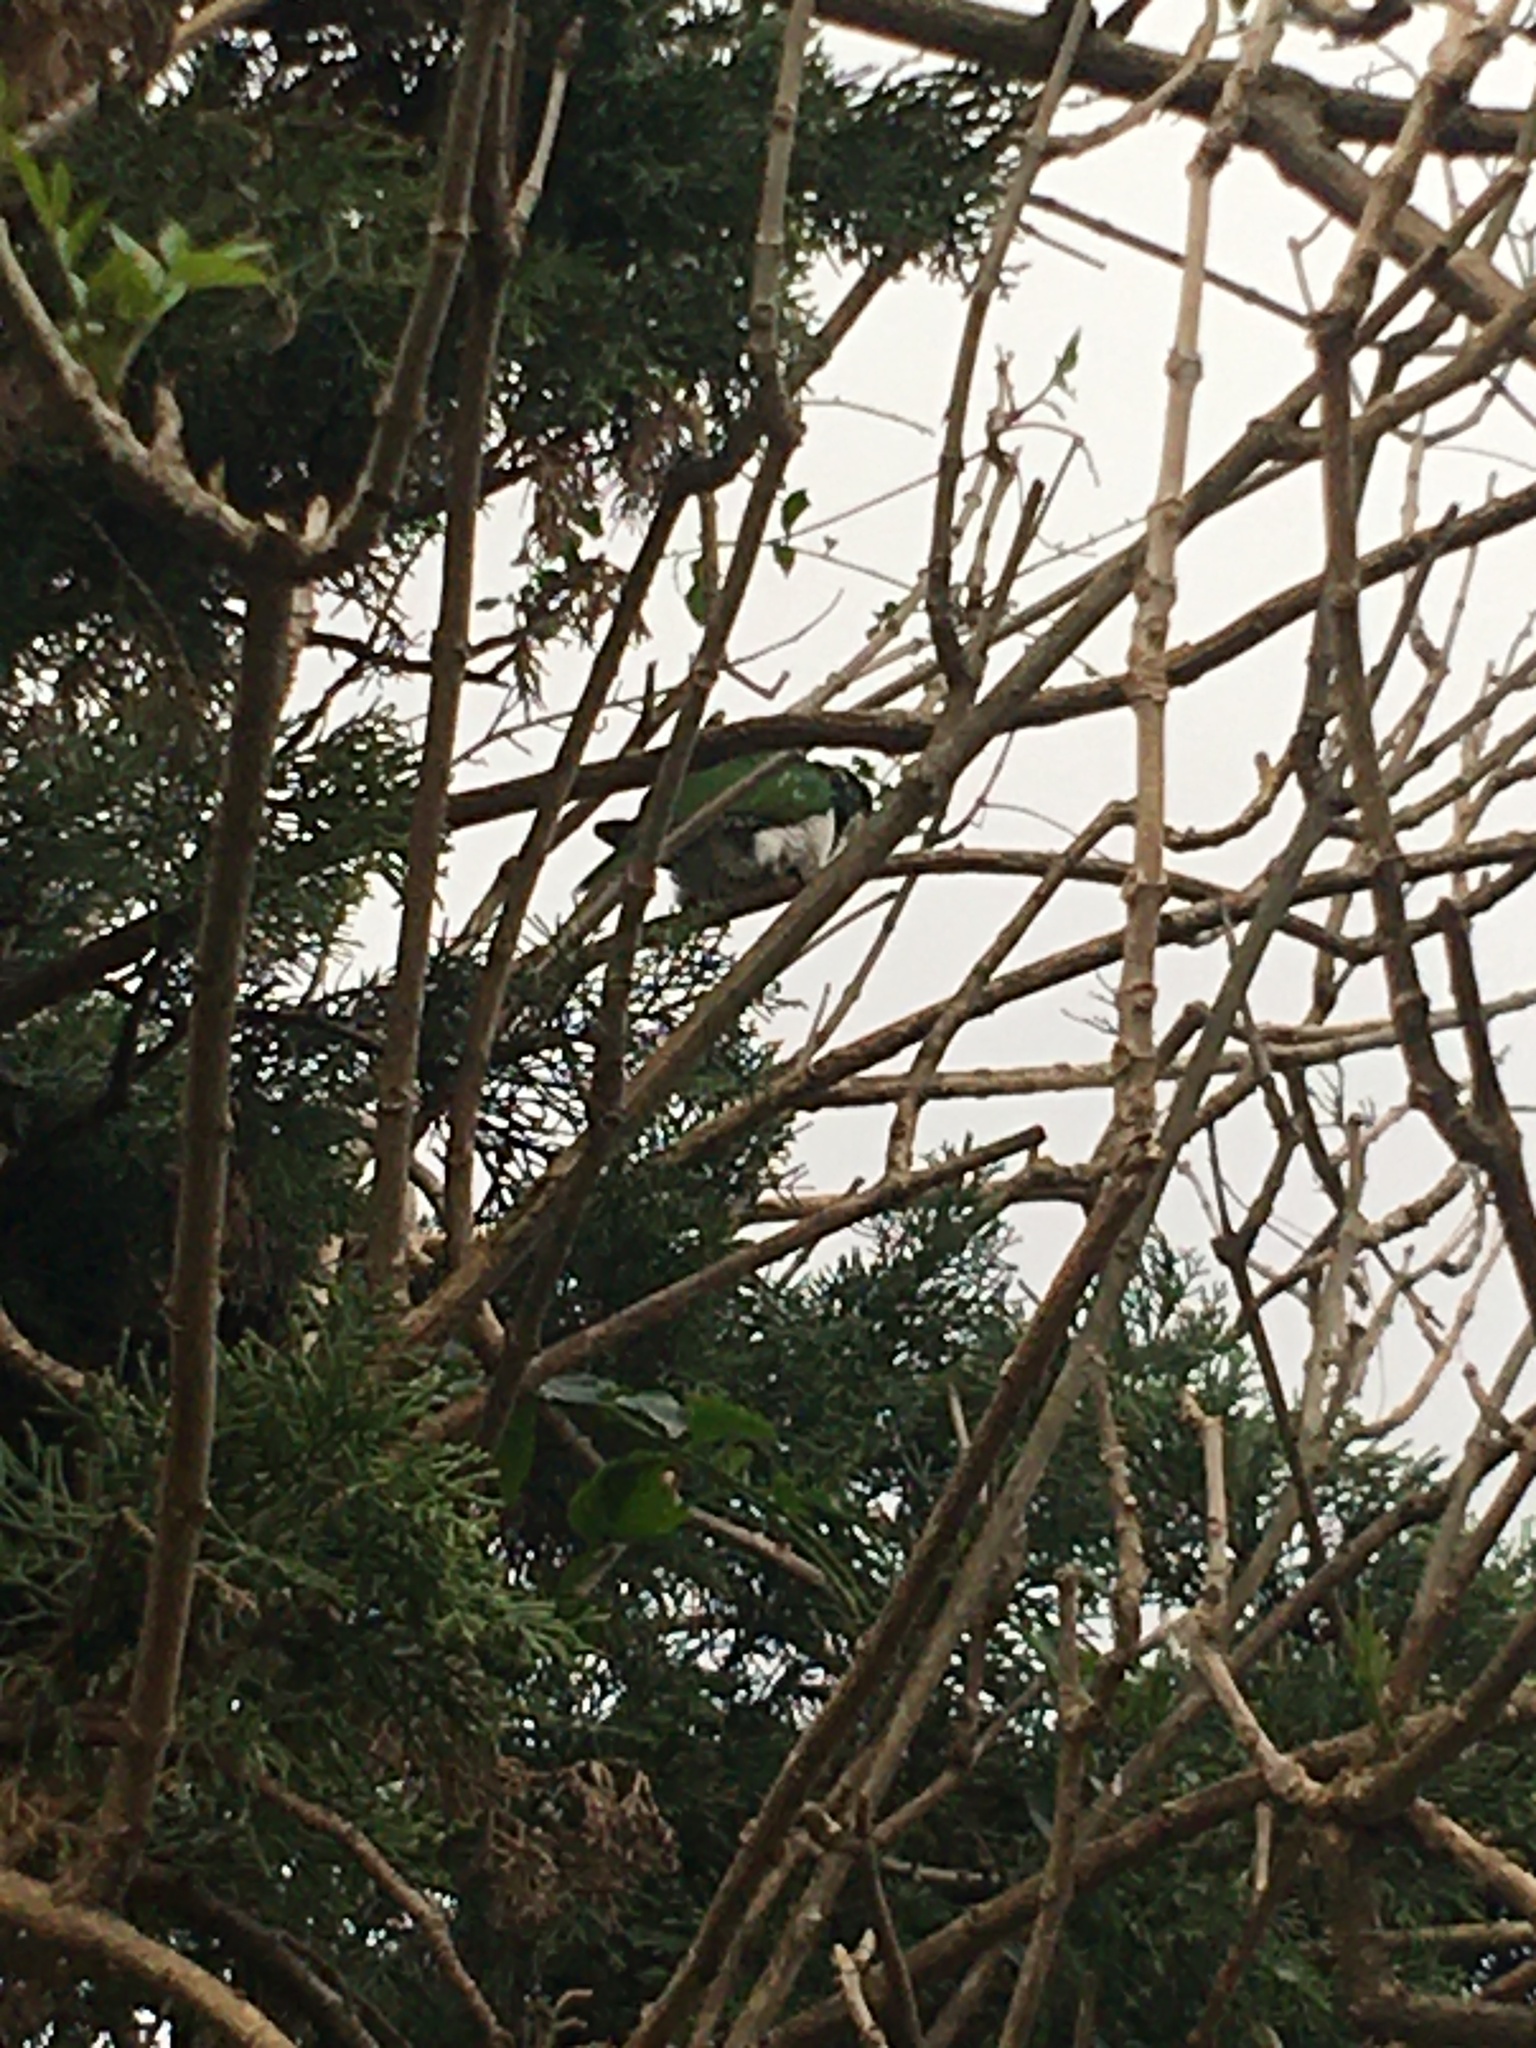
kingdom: Animalia
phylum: Chordata
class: Aves
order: Cuculiformes
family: Cuculidae
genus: Chrysococcyx
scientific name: Chrysococcyx klaas
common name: Klaas's cuckoo
